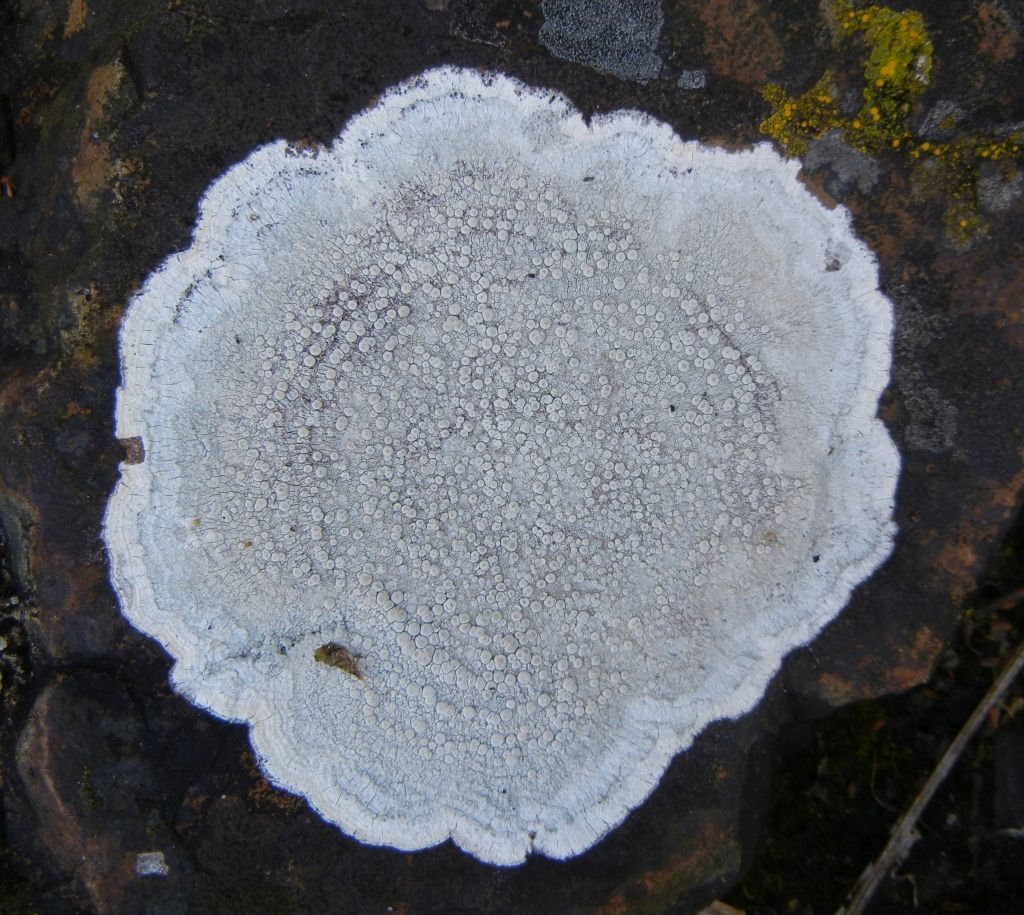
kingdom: Fungi
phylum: Ascomycota
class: Lecanoromycetes
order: Pertusariales
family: Ochrolechiaceae
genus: Ochrolechia
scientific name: Ochrolechia parella
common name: Crab's eye lichen
